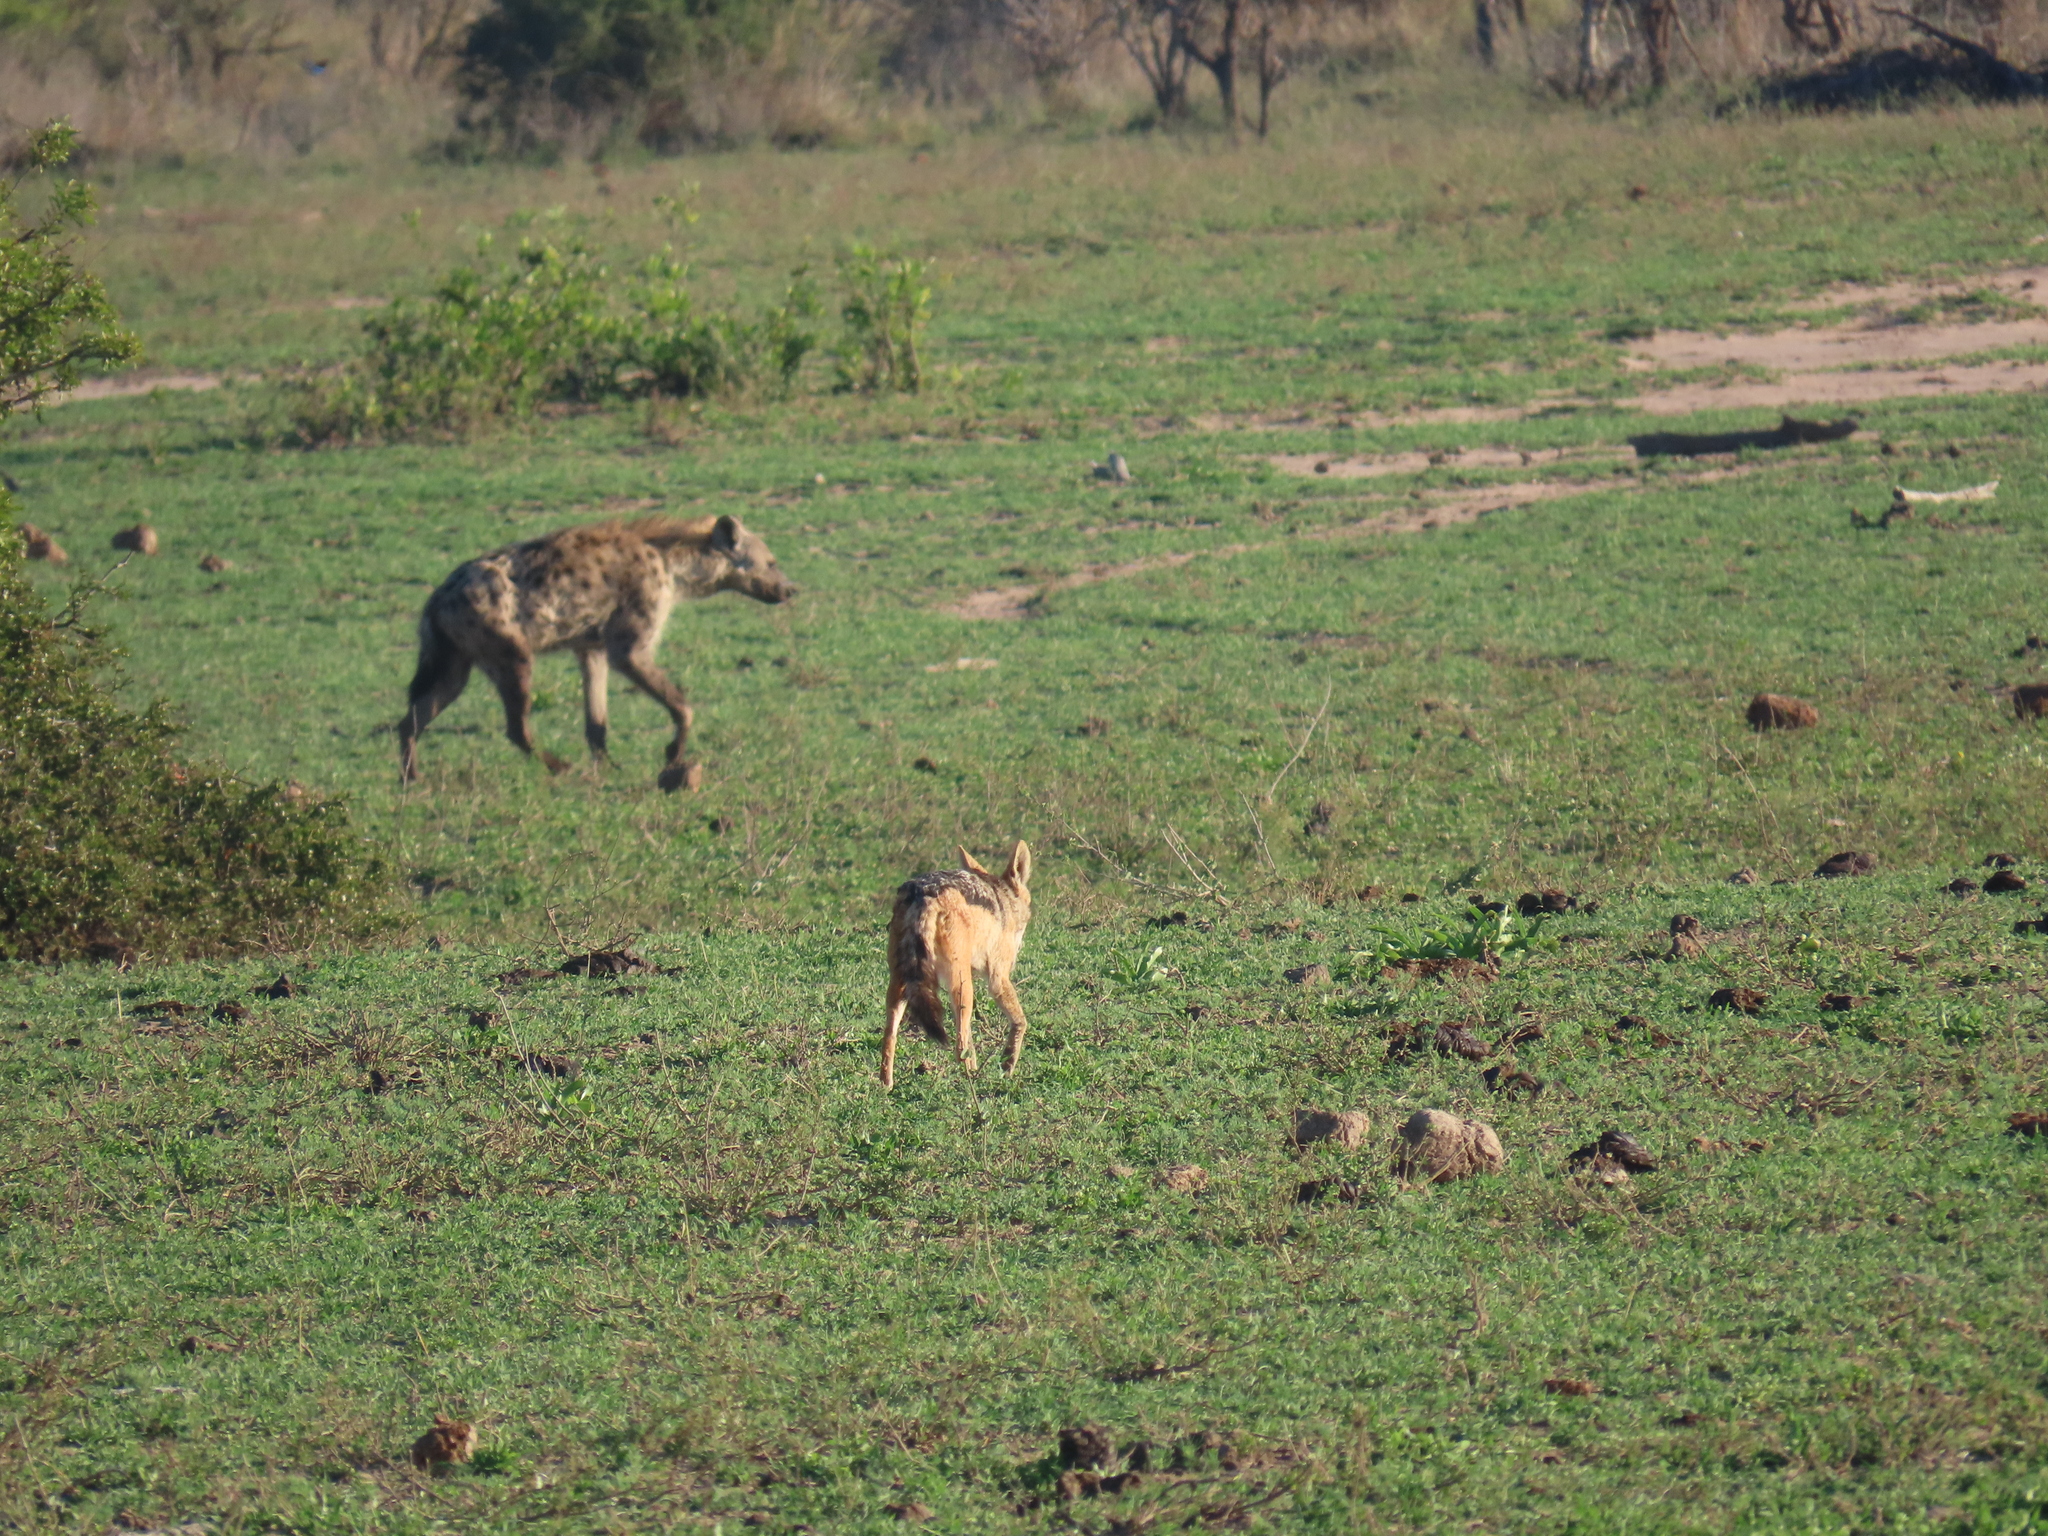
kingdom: Animalia
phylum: Chordata
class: Mammalia
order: Carnivora
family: Canidae
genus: Lupulella
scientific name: Lupulella
